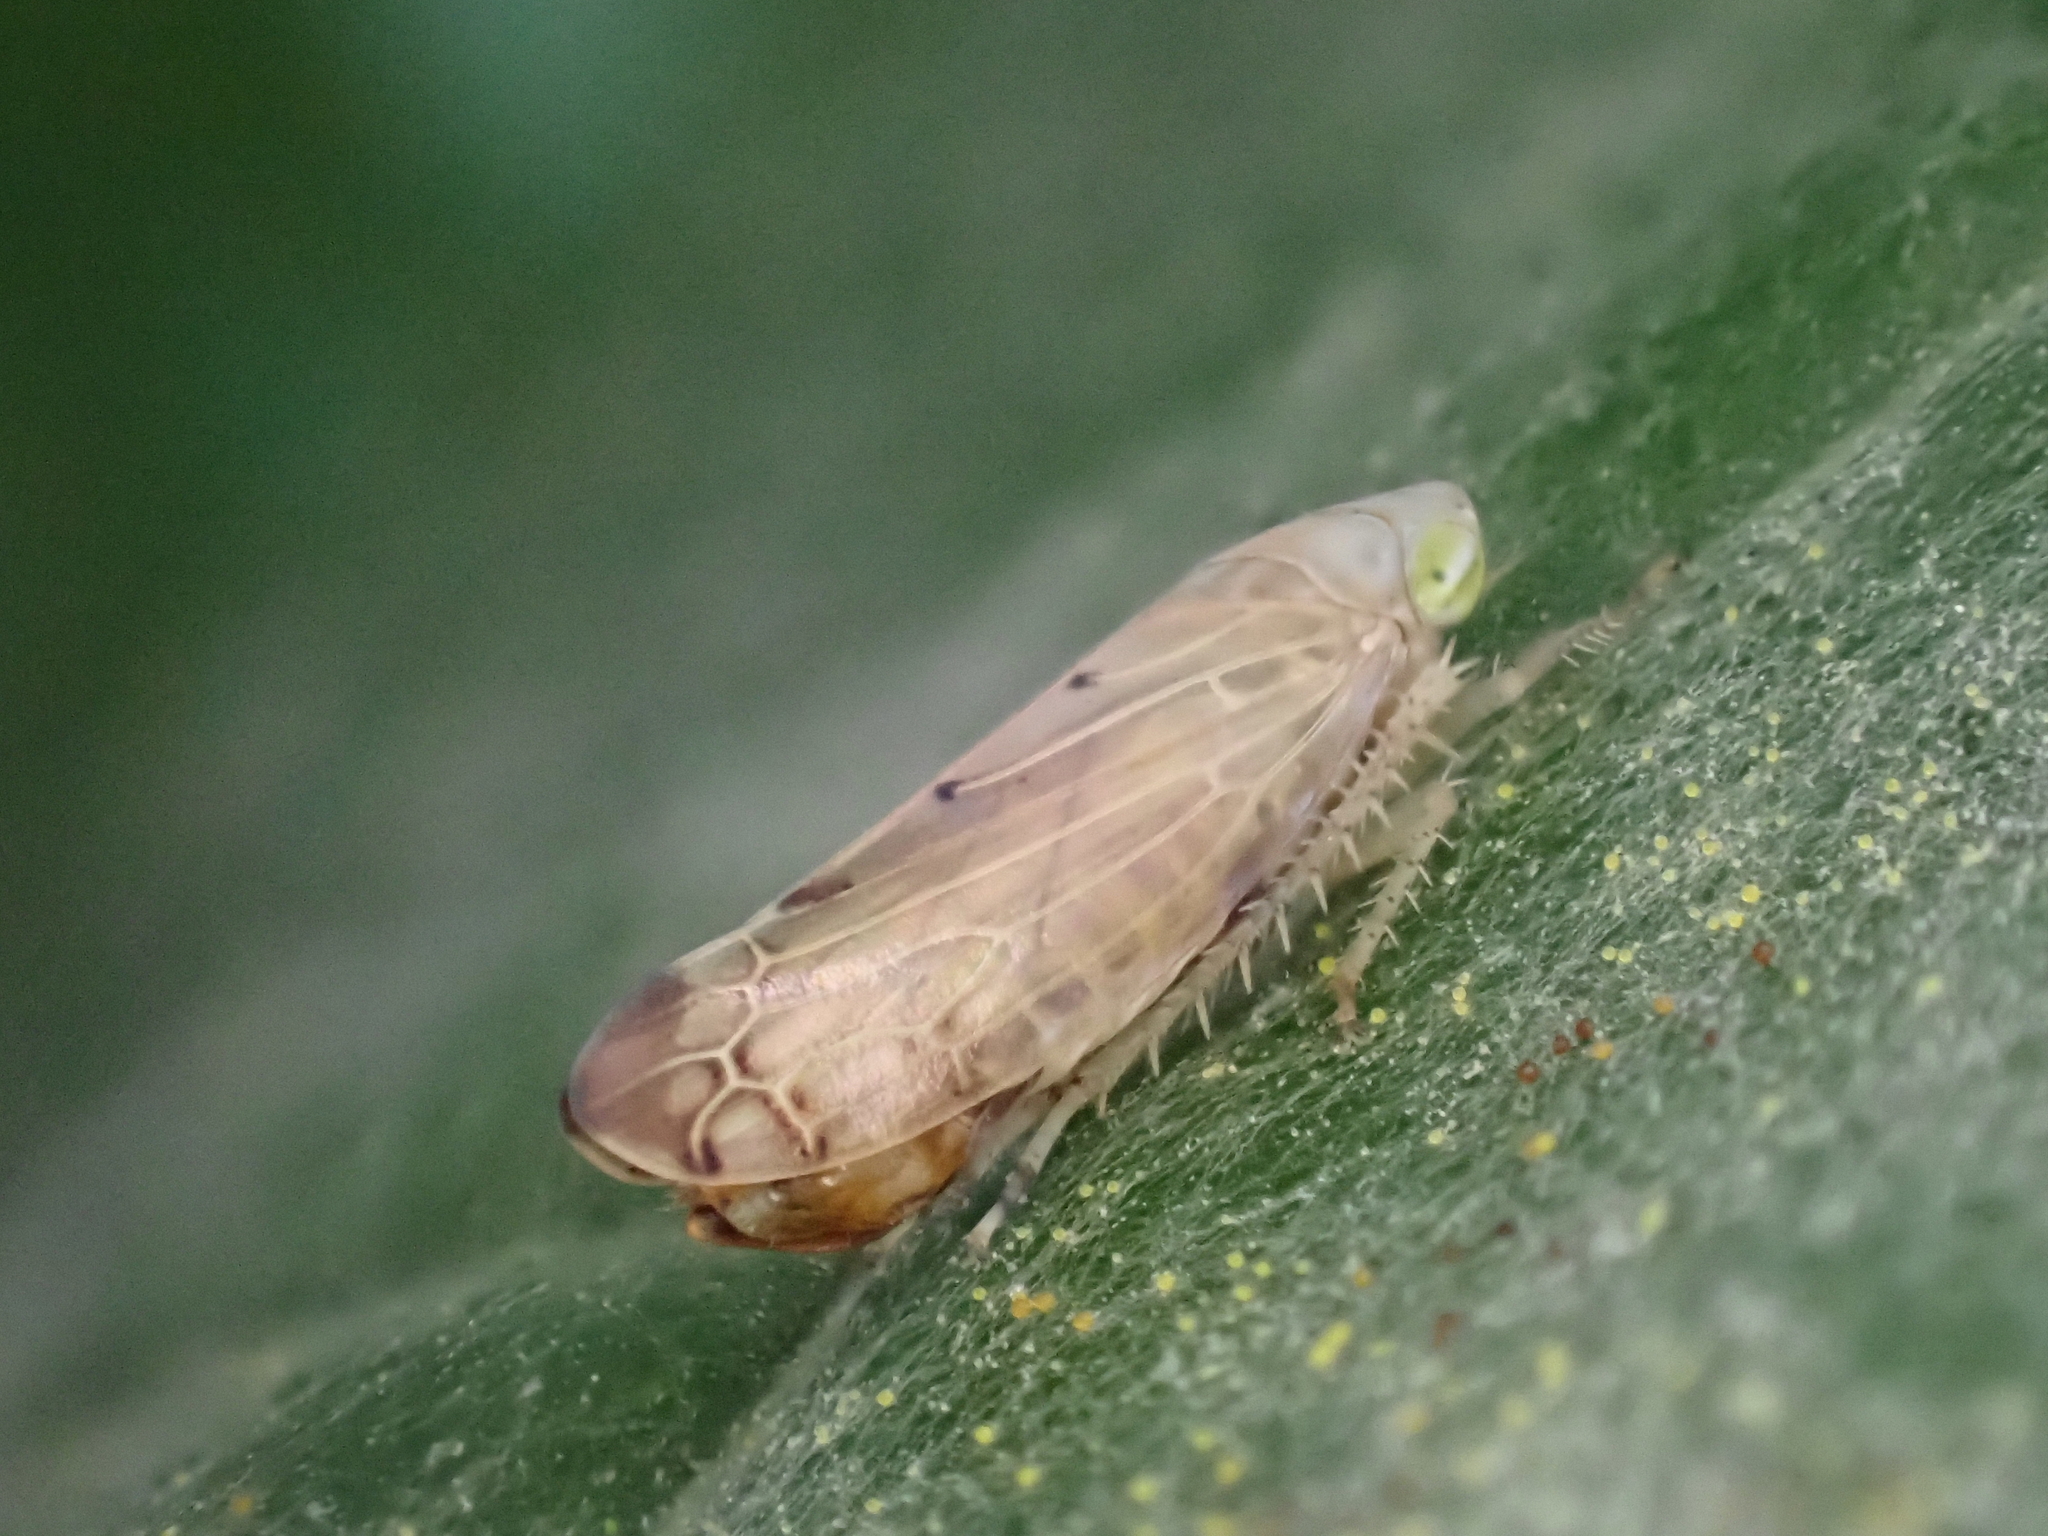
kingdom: Animalia
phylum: Arthropoda
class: Insecta
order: Hemiptera
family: Cicadellidae
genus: Synophropsis
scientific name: Synophropsis lauri
